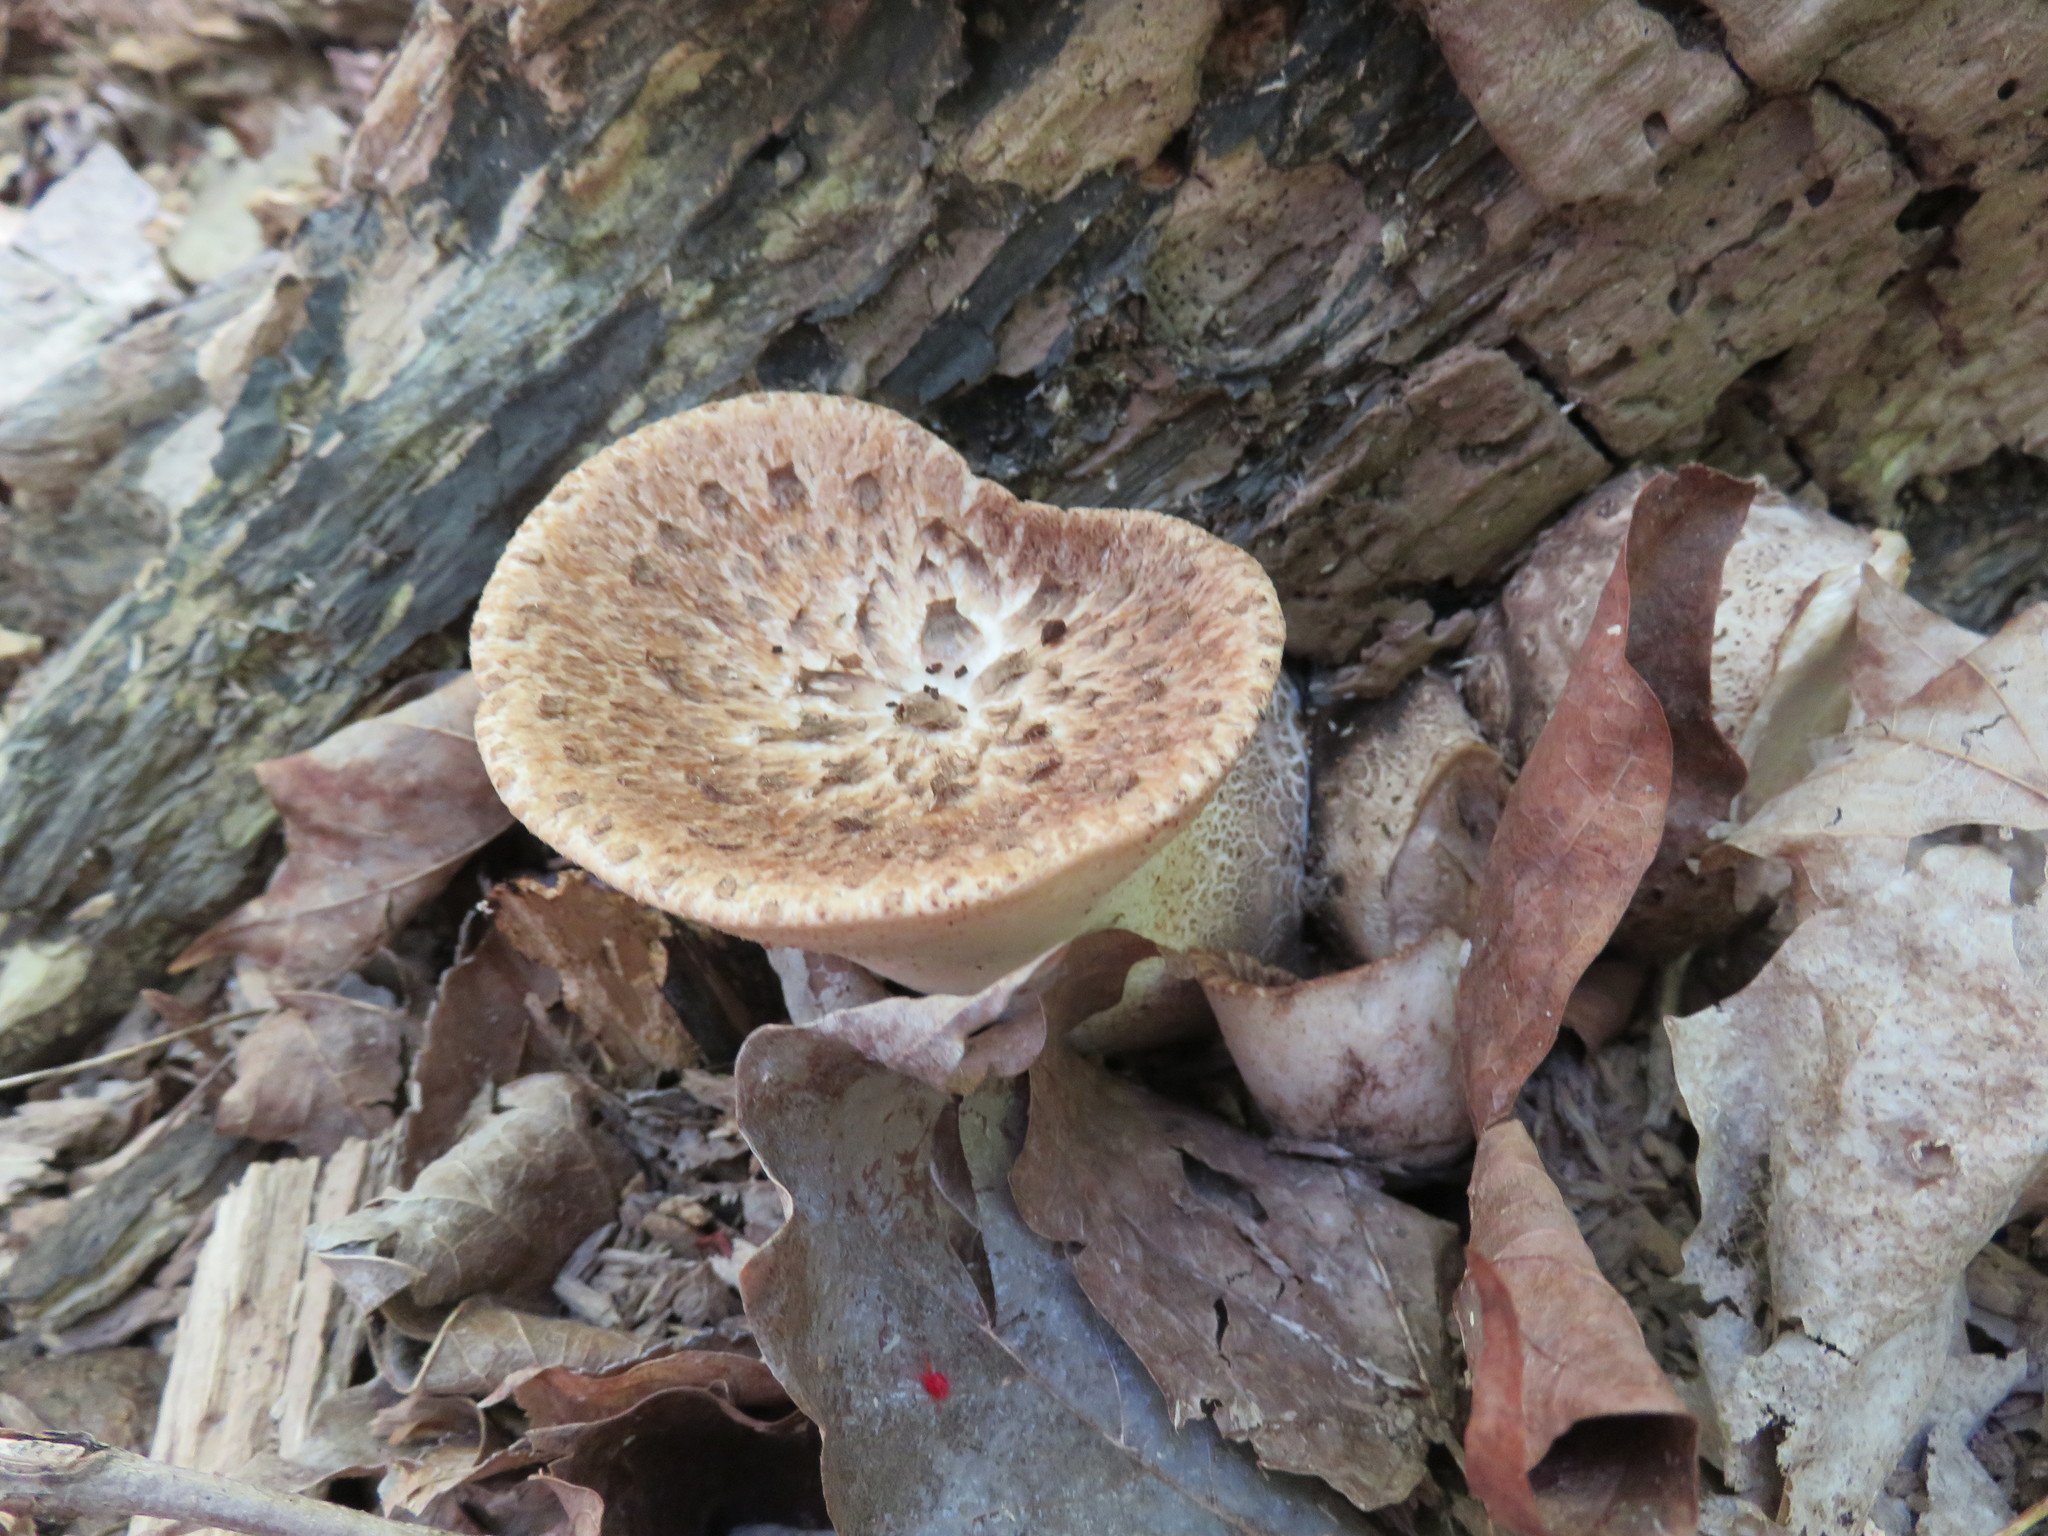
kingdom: Fungi
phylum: Basidiomycota
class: Agaricomycetes
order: Polyporales
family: Polyporaceae
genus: Cerioporus
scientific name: Cerioporus squamosus
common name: Dryad's saddle
